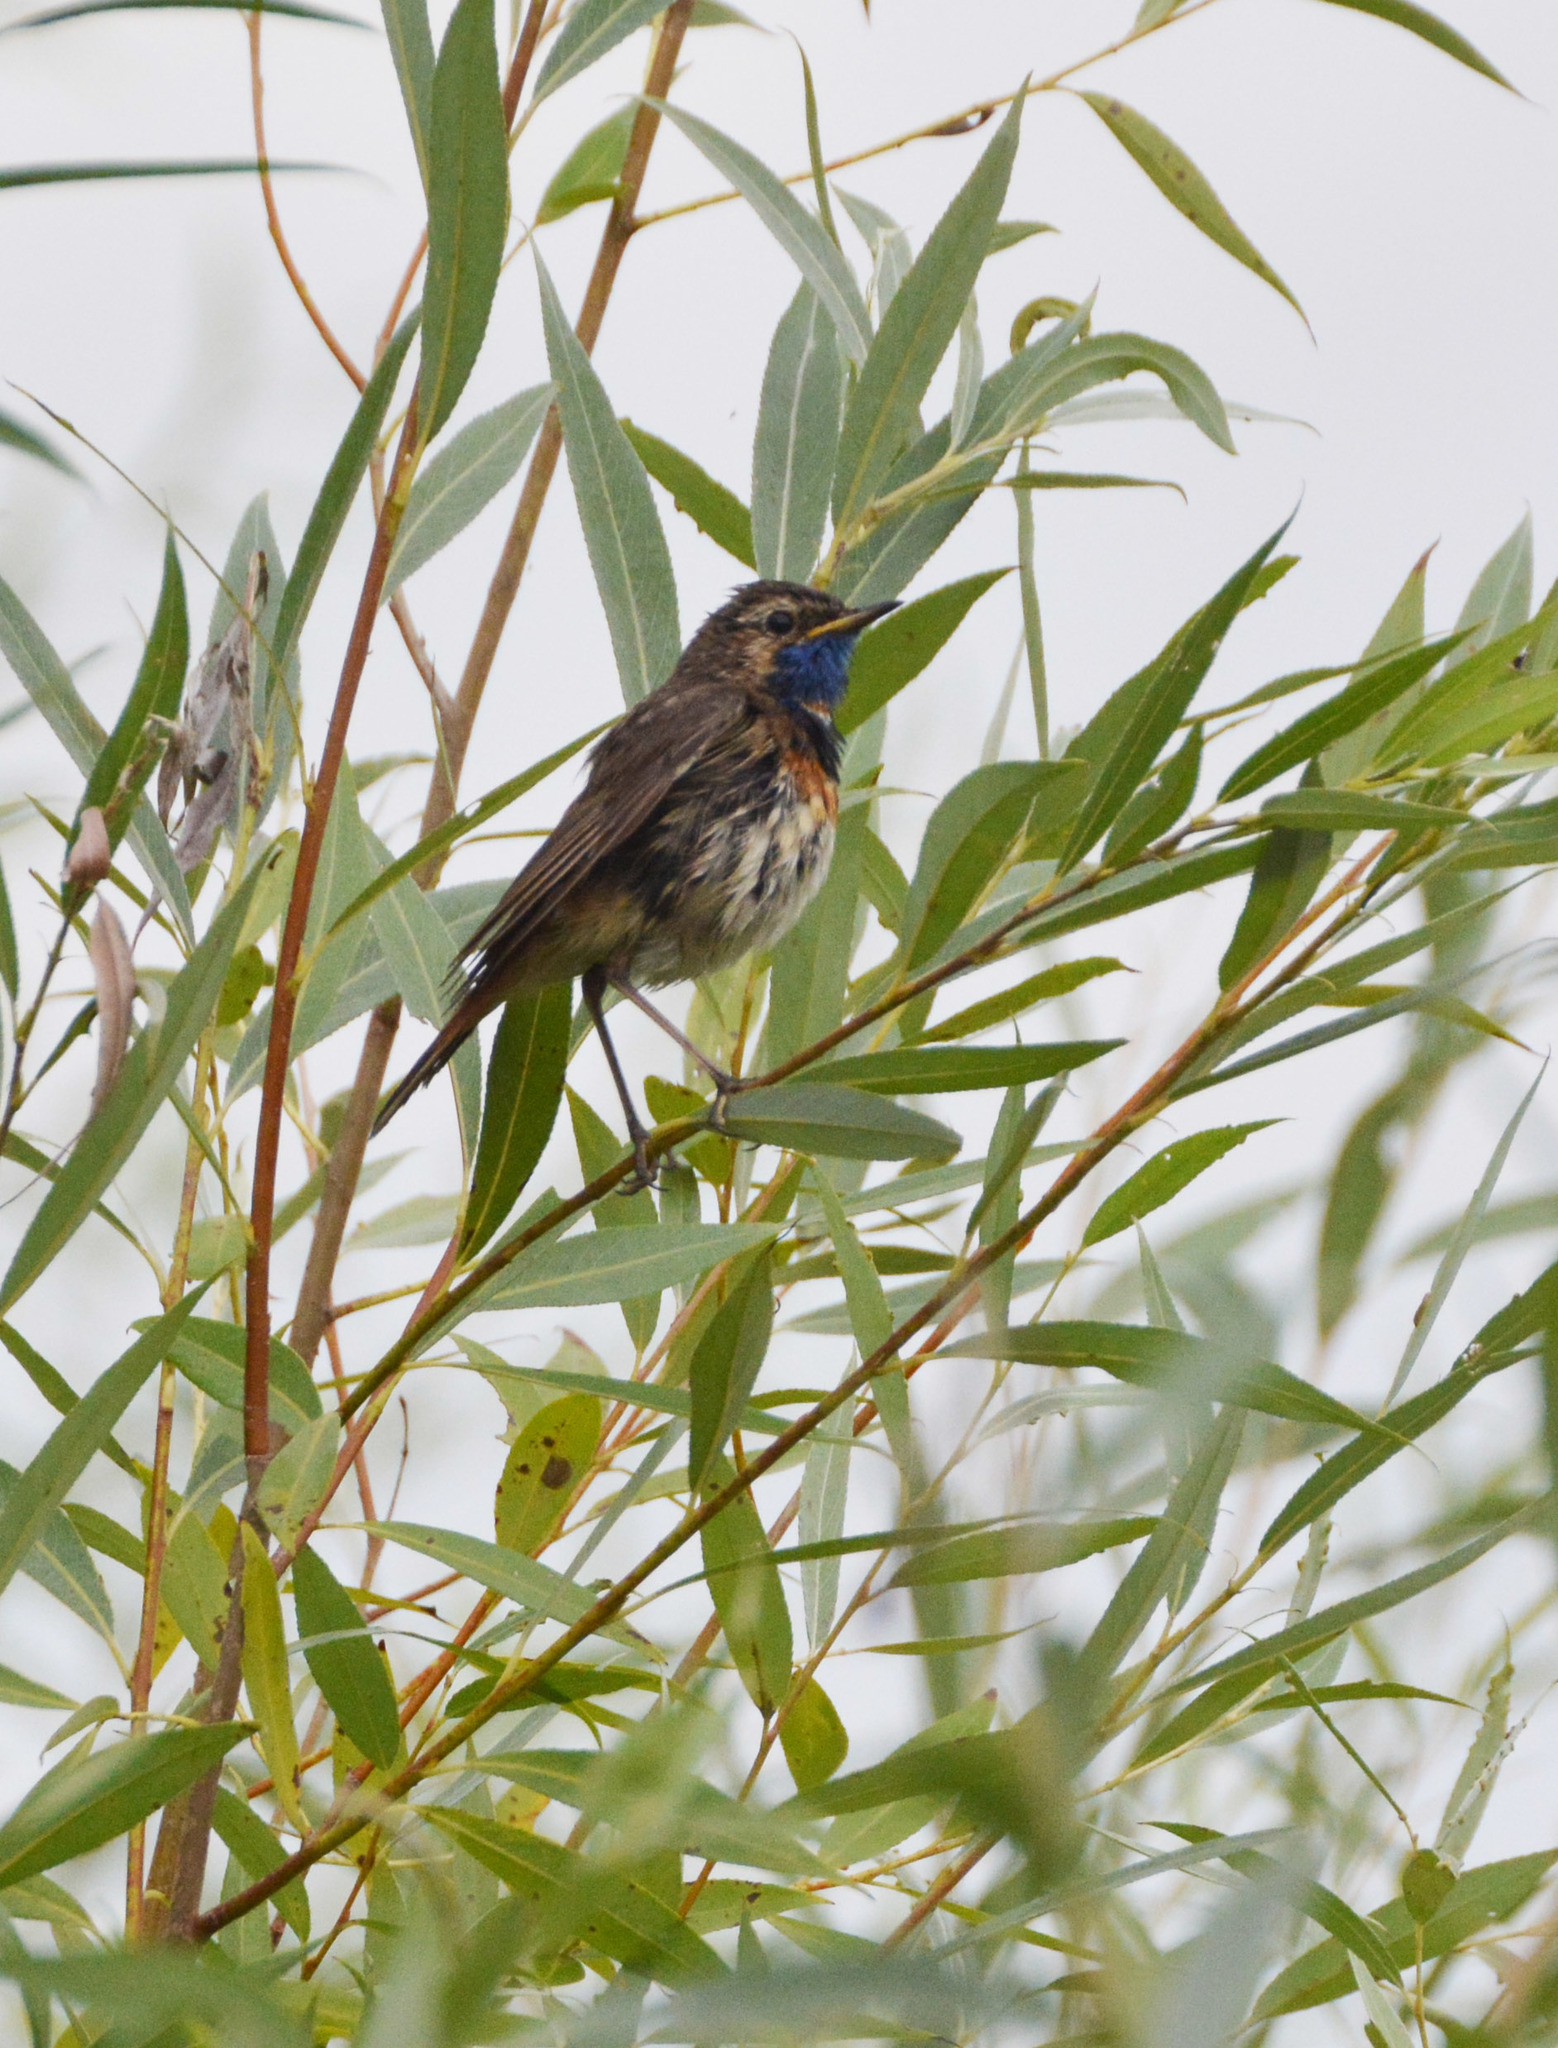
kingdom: Animalia
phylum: Chordata
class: Aves
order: Passeriformes
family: Muscicapidae
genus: Luscinia
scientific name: Luscinia svecica
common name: Bluethroat
